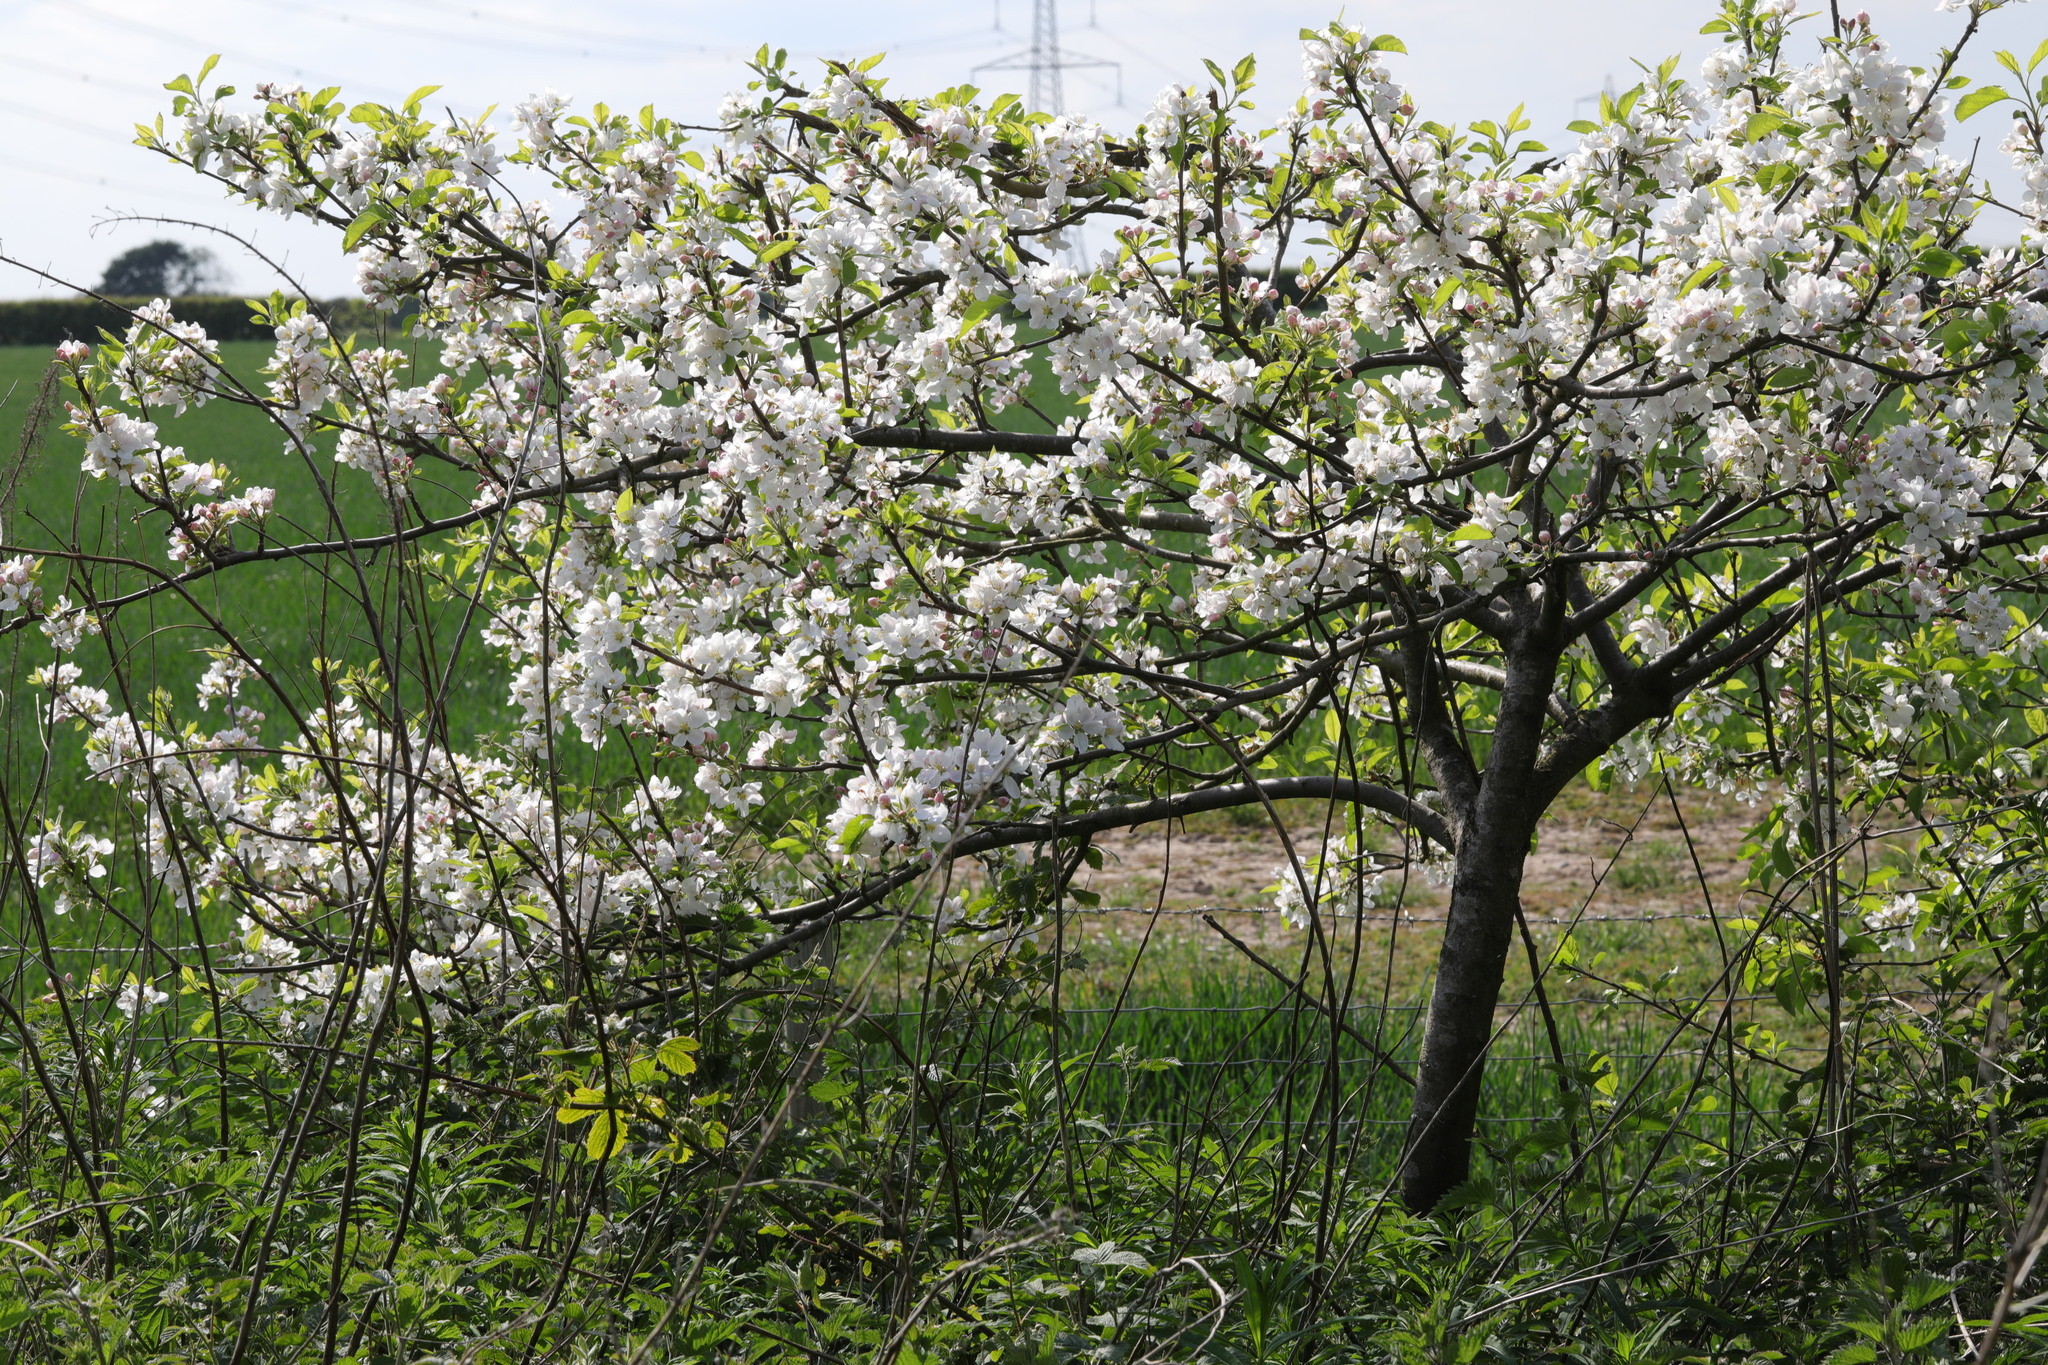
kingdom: Plantae
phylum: Tracheophyta
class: Magnoliopsida
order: Rosales
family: Rosaceae
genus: Malus
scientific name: Malus domestica
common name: Apple
